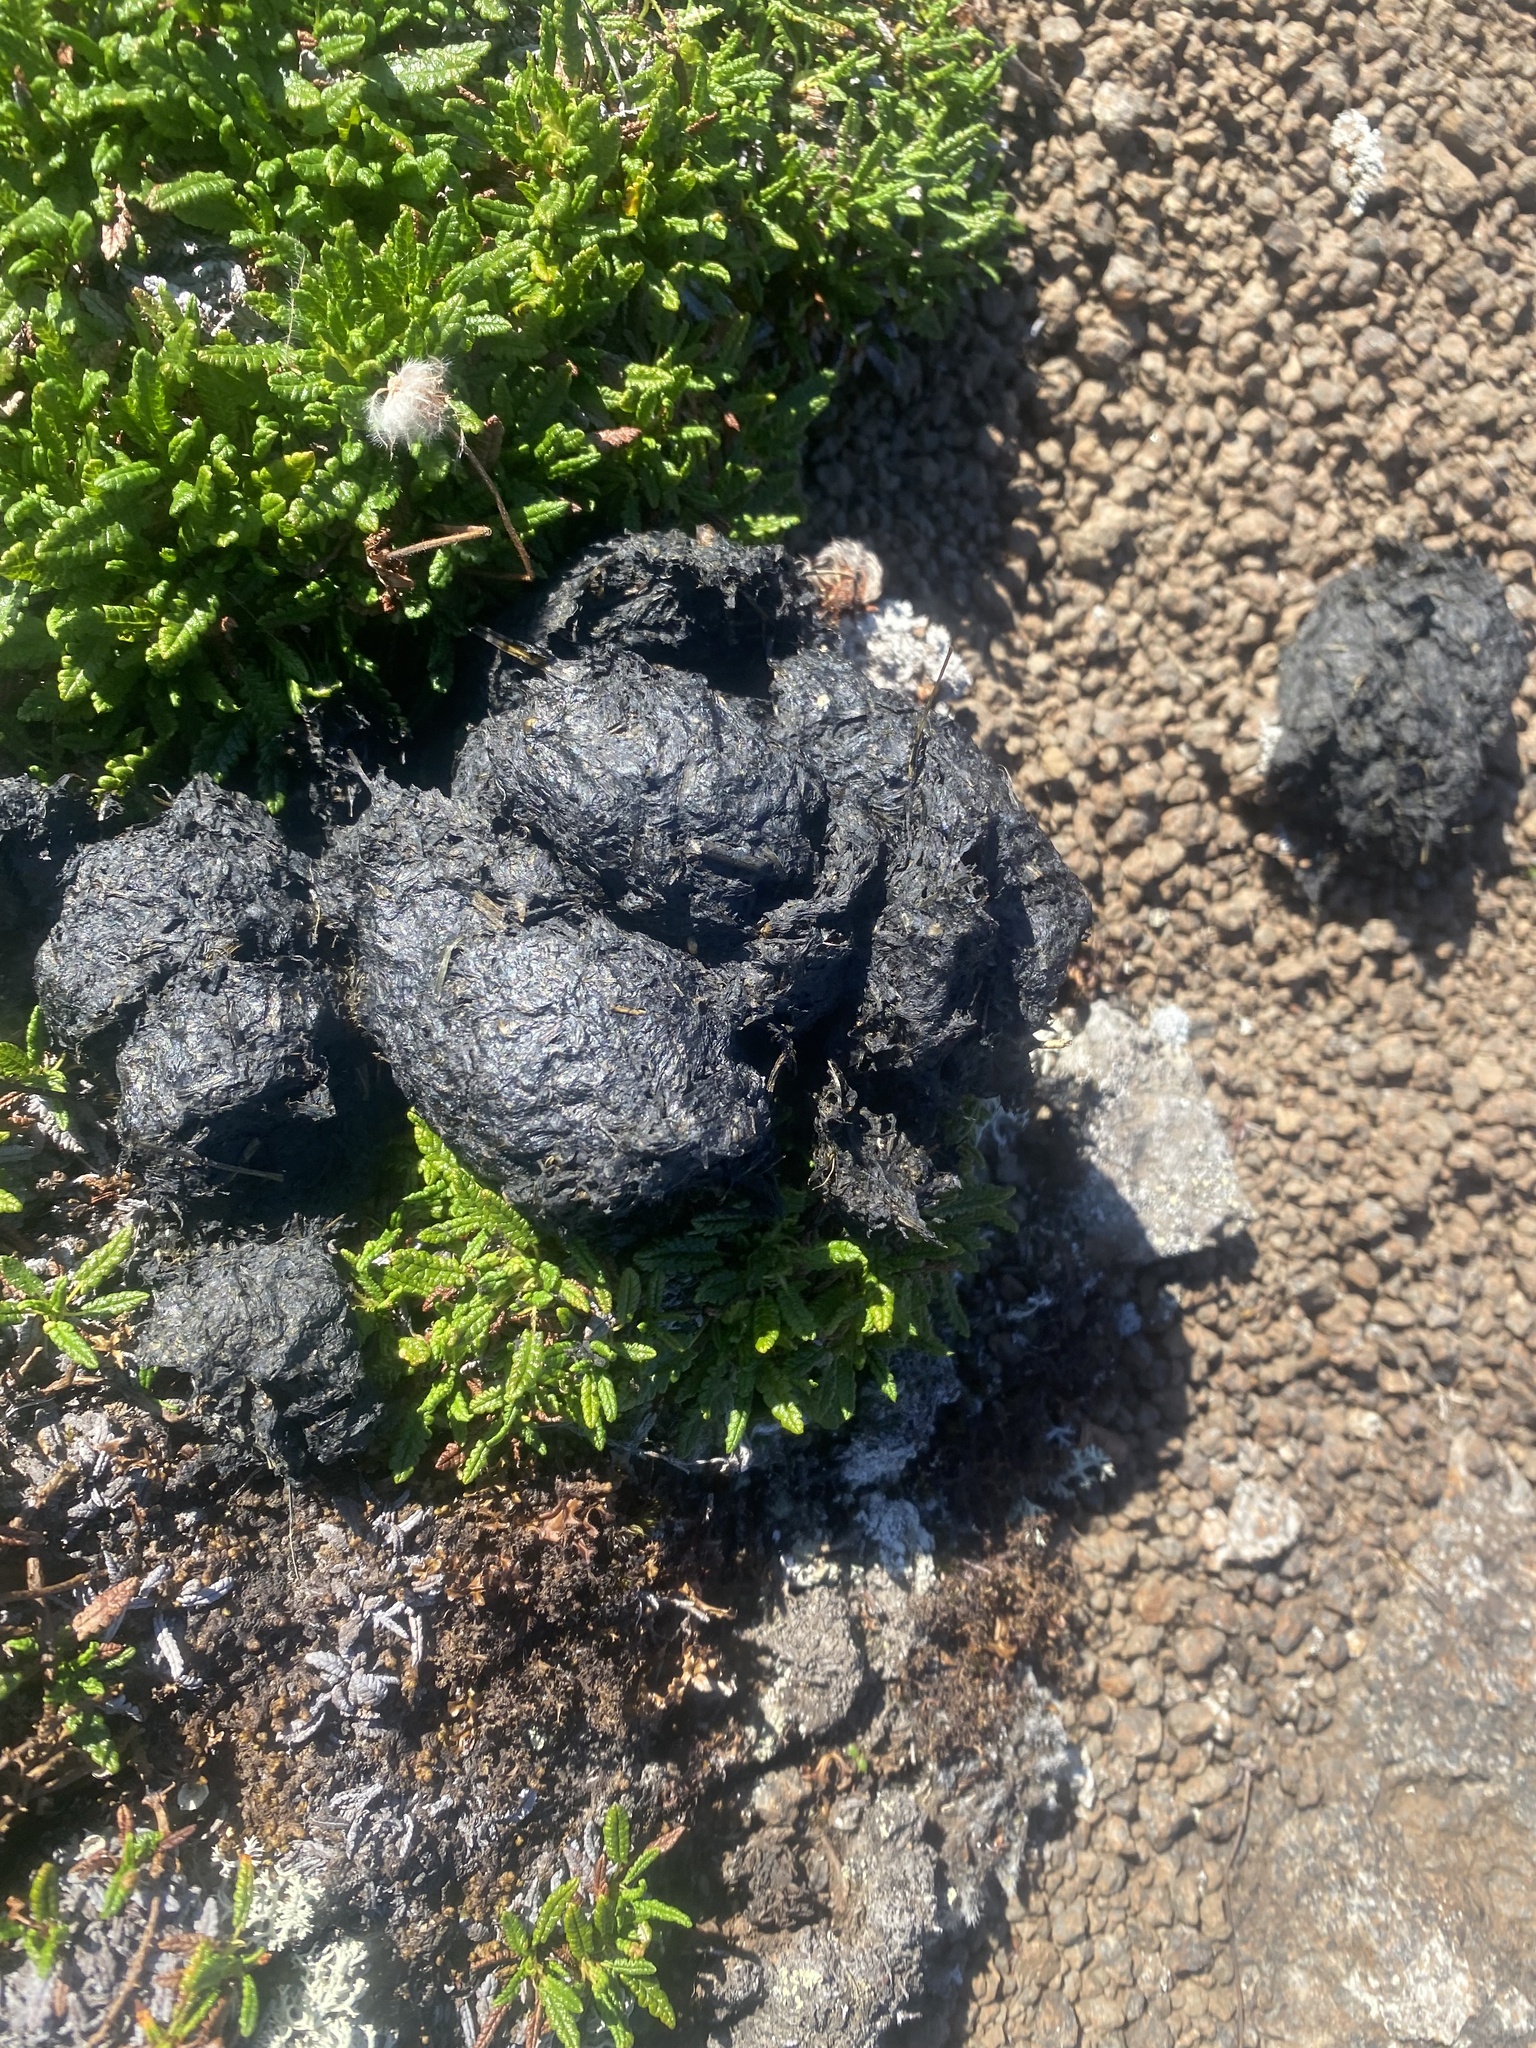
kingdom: Animalia
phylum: Chordata
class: Mammalia
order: Carnivora
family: Ursidae
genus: Ursus
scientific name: Ursus arctos
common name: Brown bear
